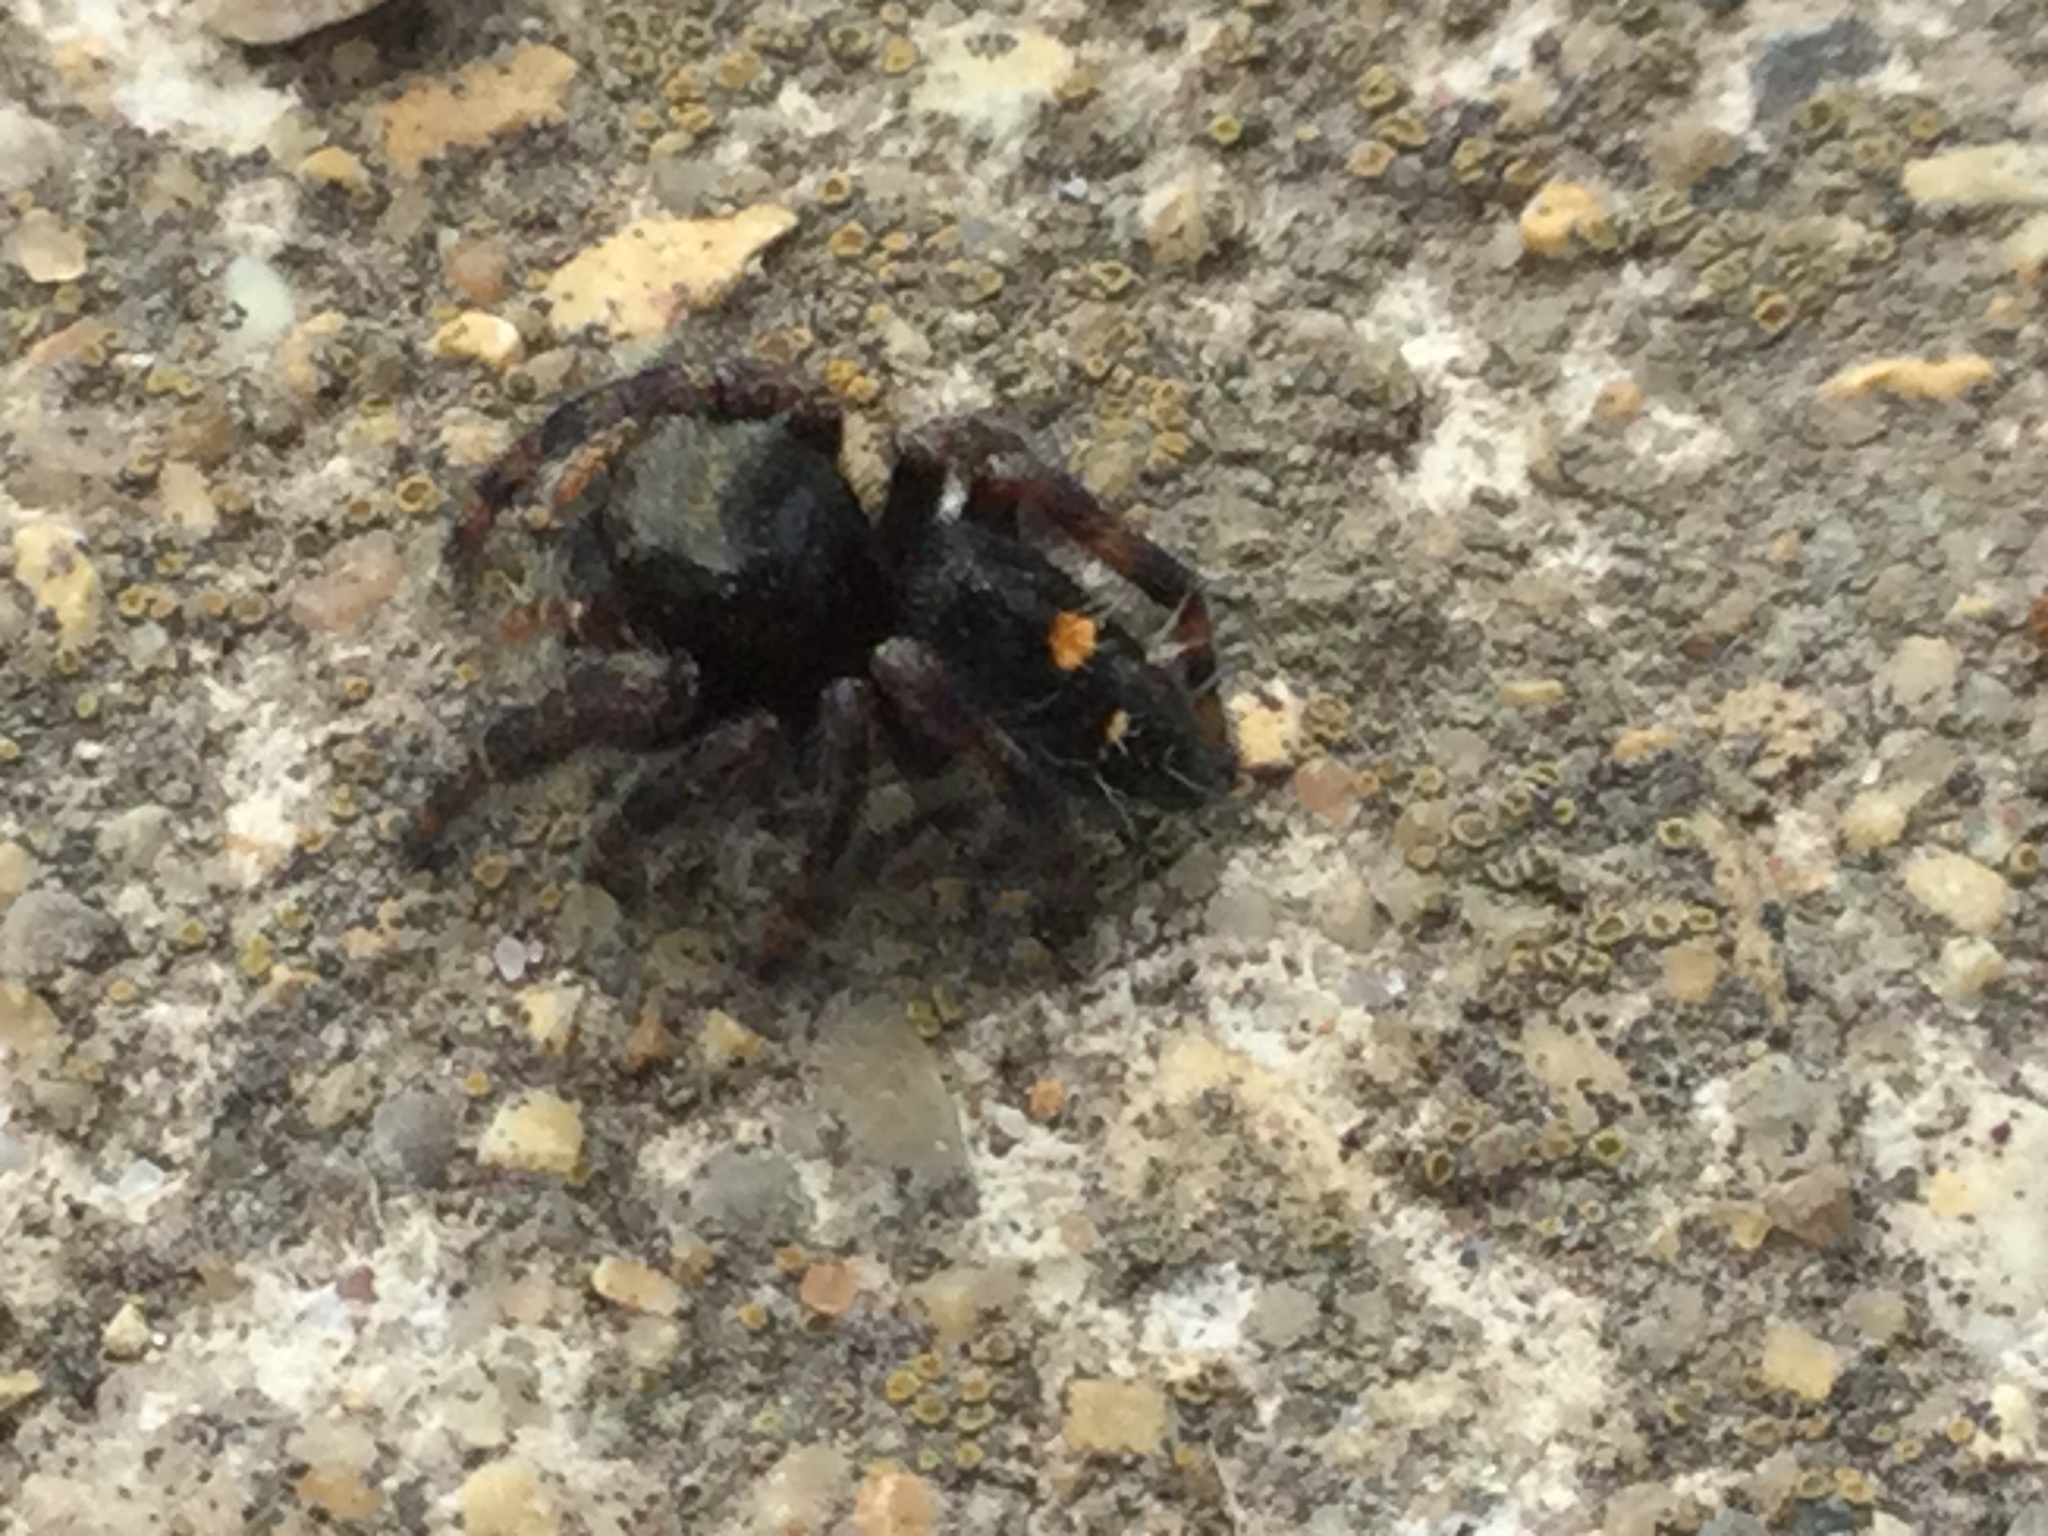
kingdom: Animalia
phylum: Arthropoda
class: Arachnida
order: Araneae
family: Salticidae
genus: Phidippus
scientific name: Phidippus audax
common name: Bold jumper
